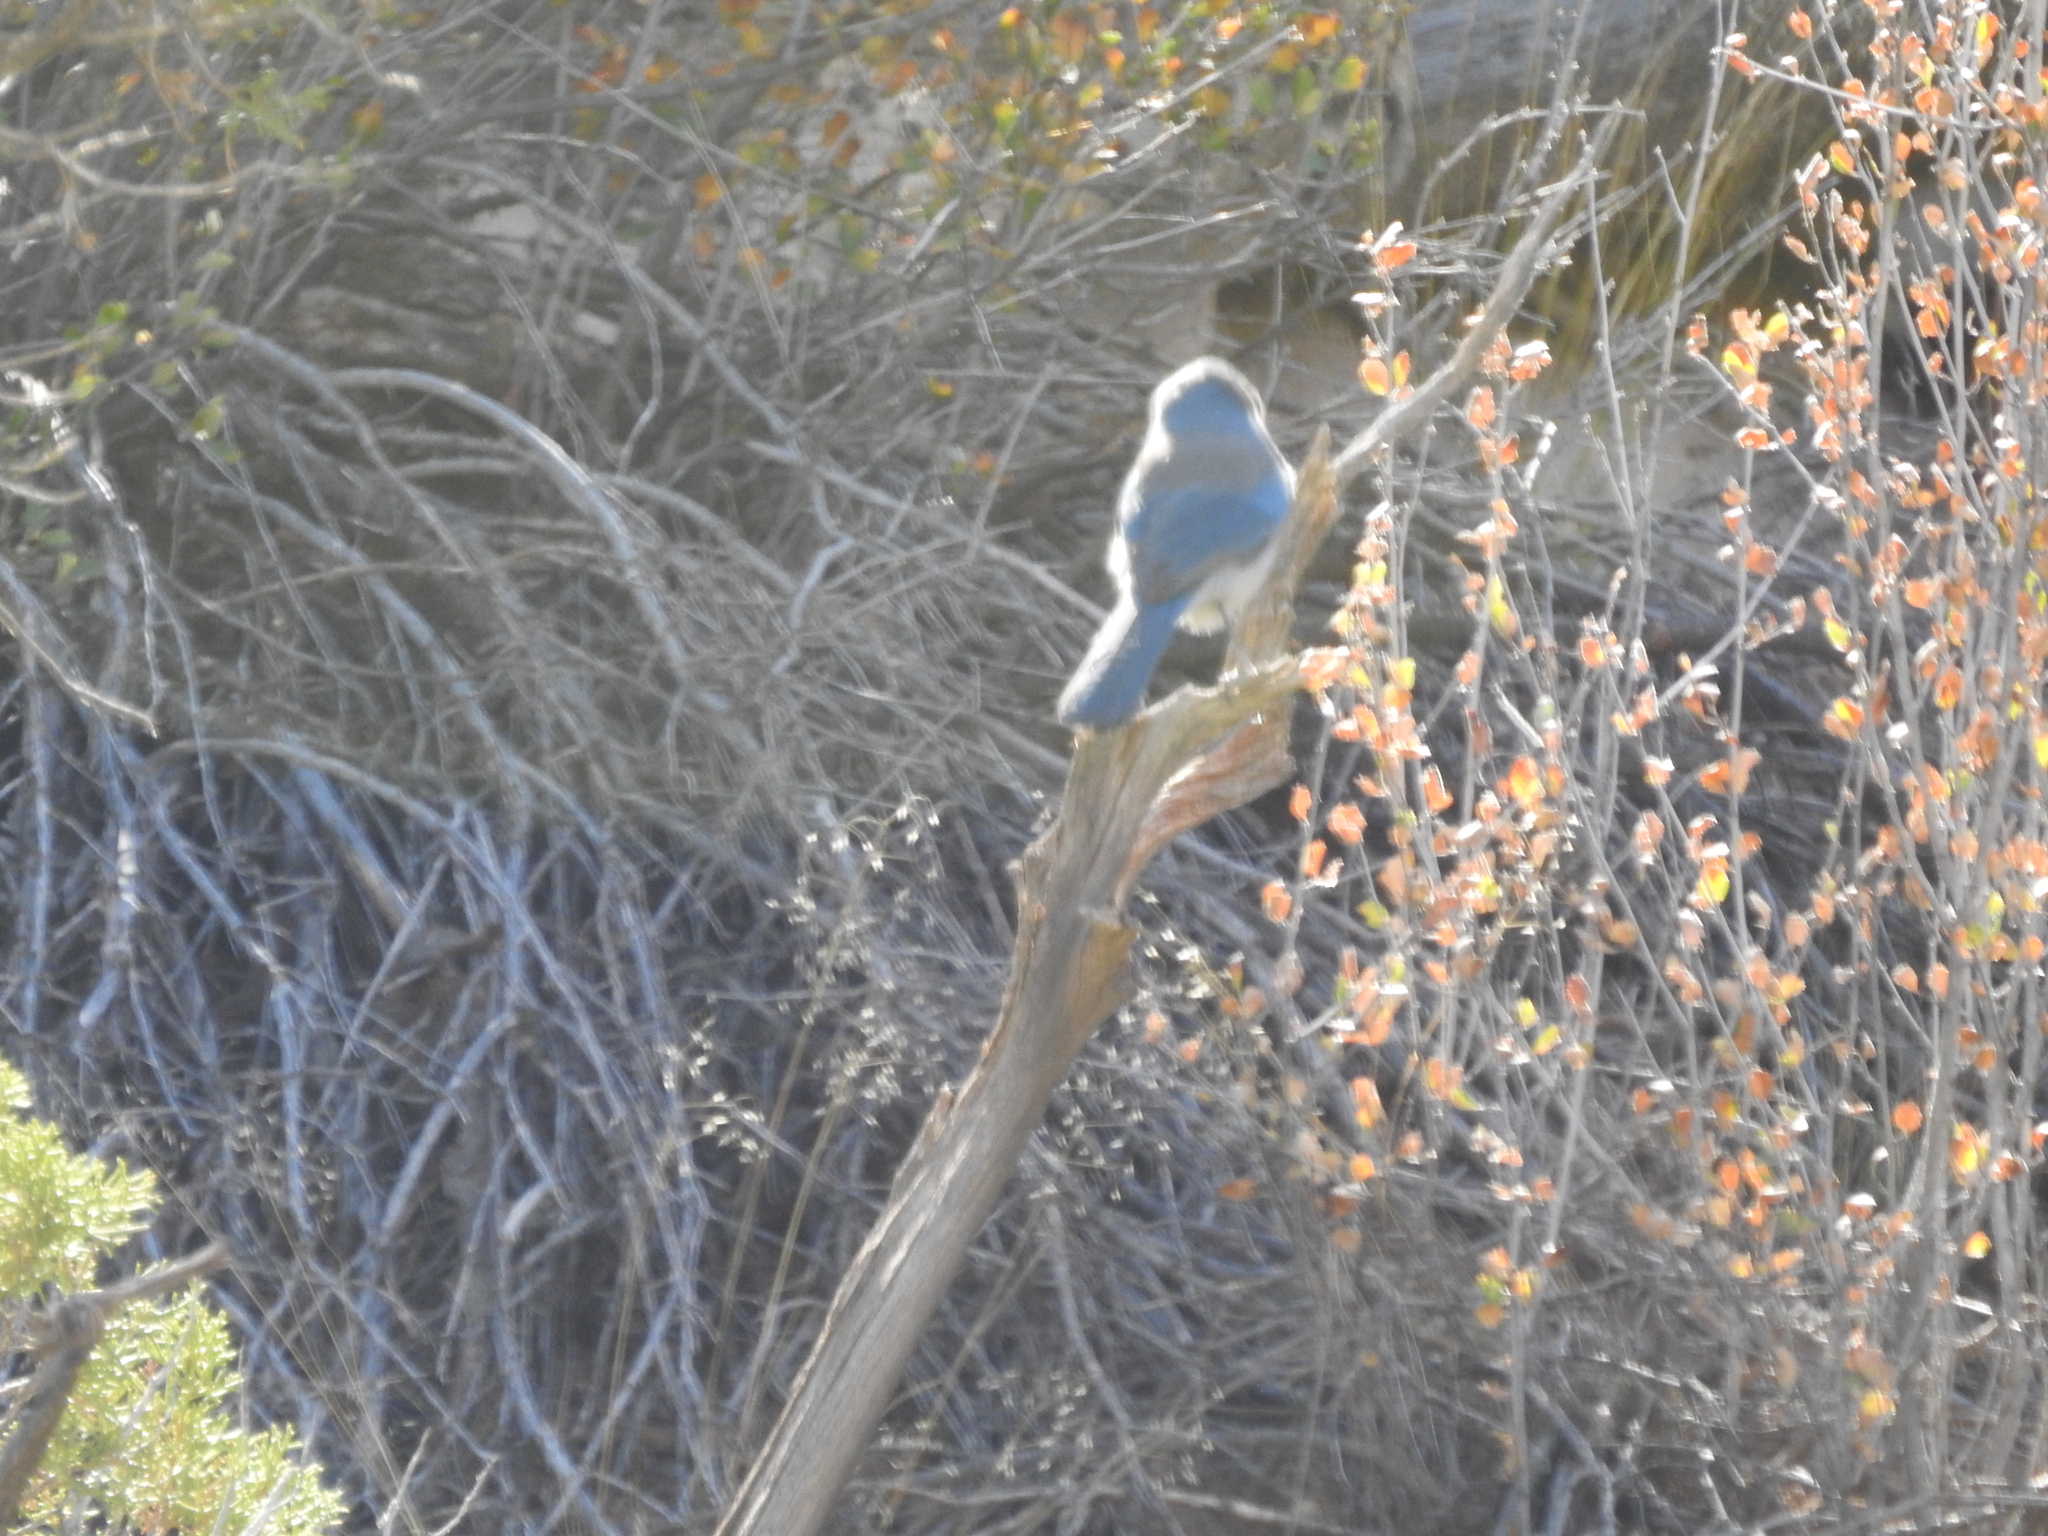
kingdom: Animalia
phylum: Chordata
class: Aves
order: Passeriformes
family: Corvidae
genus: Aphelocoma
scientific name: Aphelocoma woodhouseii
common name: Woodhouse's scrub-jay
